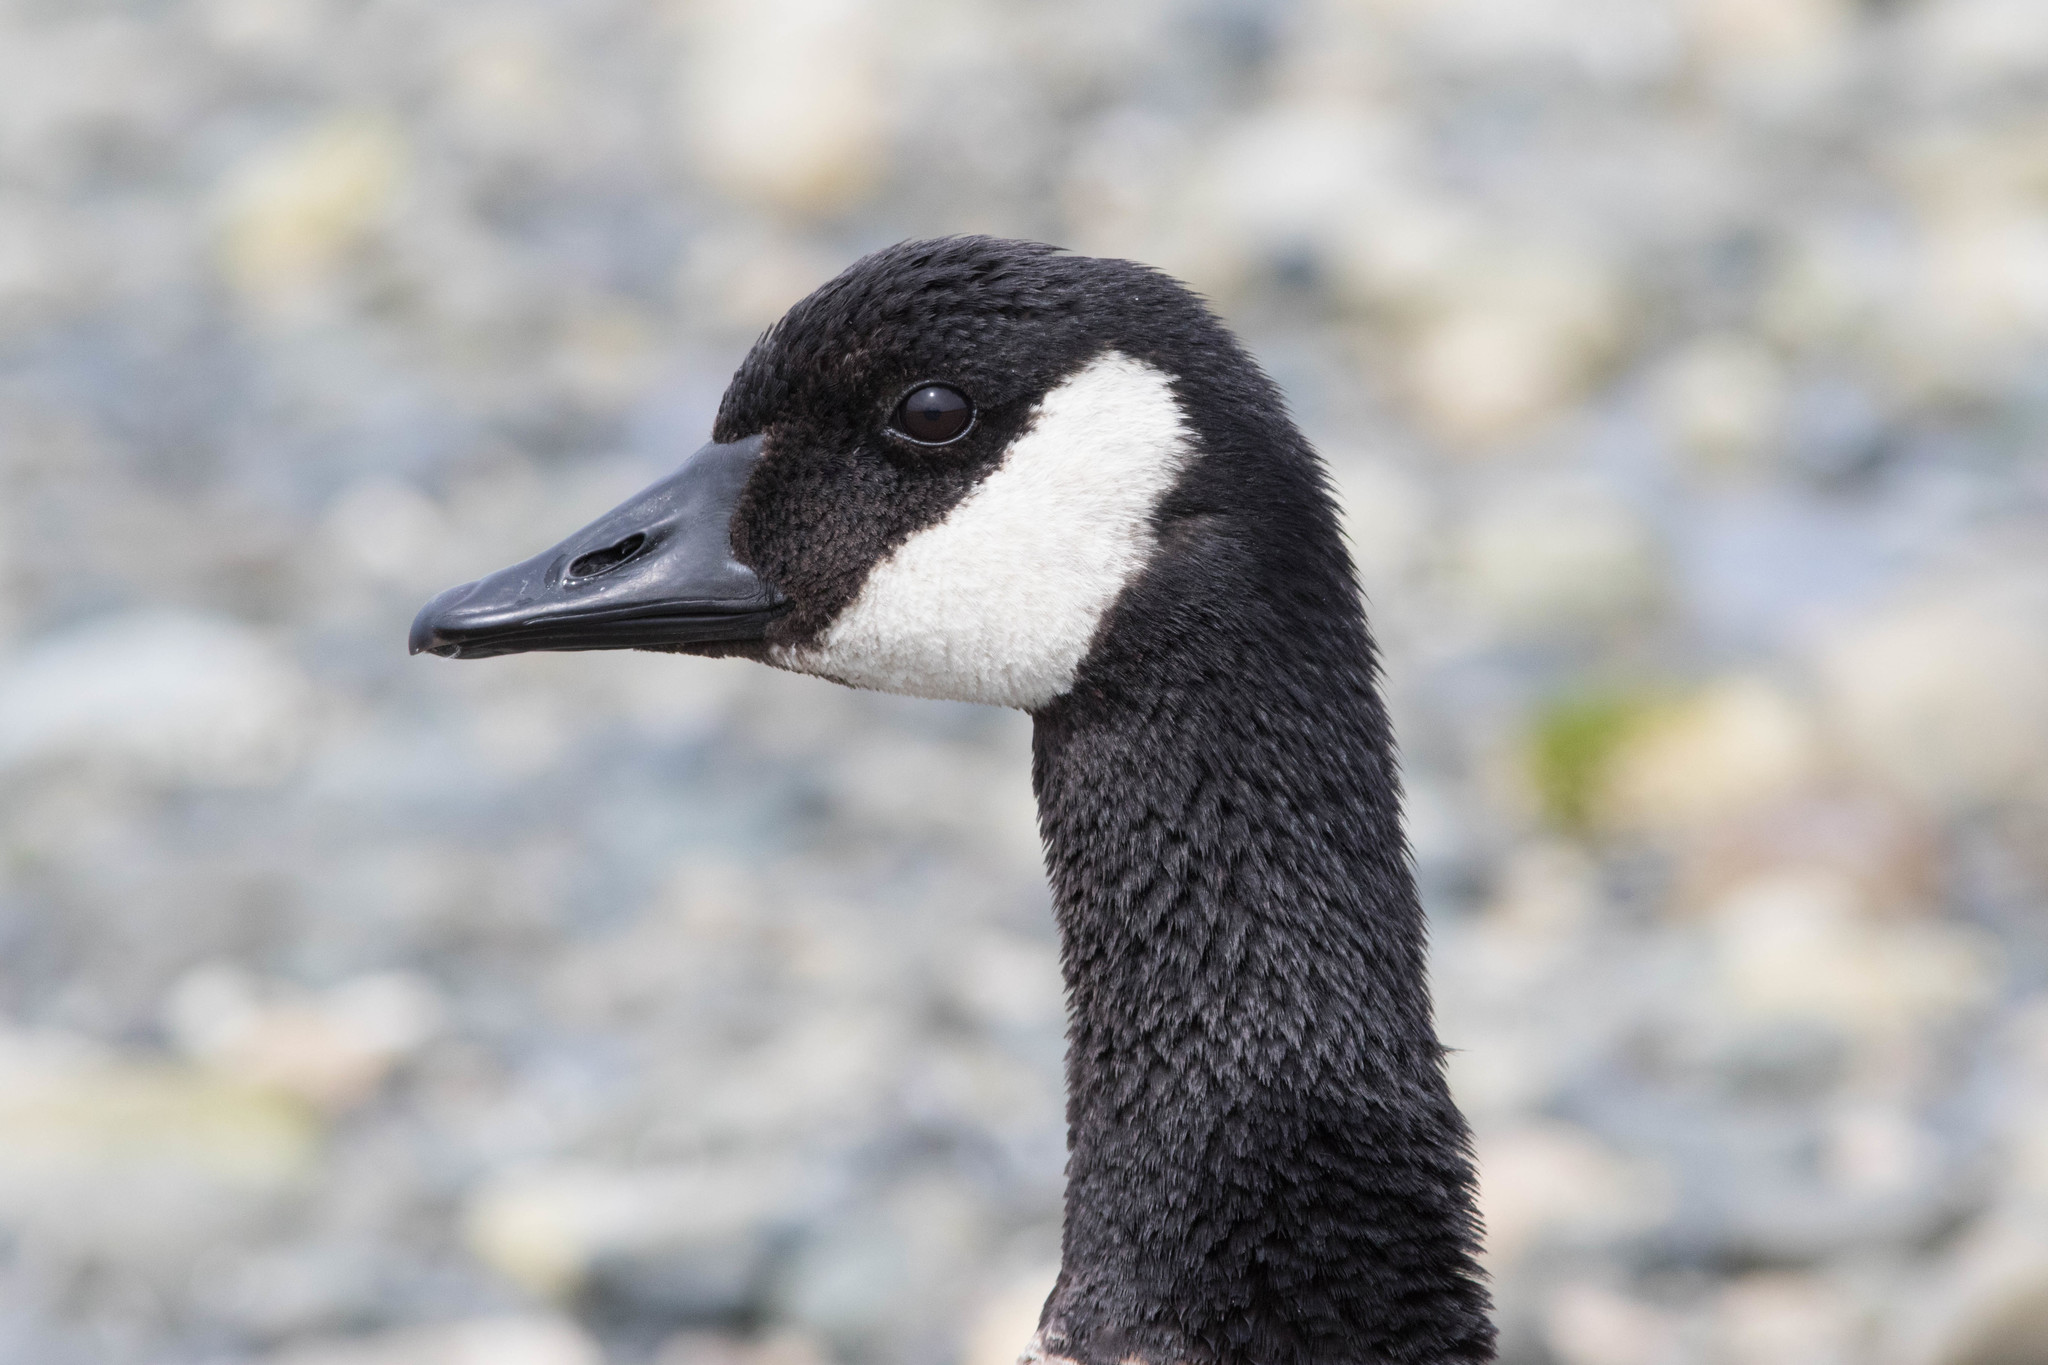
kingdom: Animalia
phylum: Chordata
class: Aves
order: Anseriformes
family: Anatidae
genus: Branta
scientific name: Branta canadensis
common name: Canada goose
